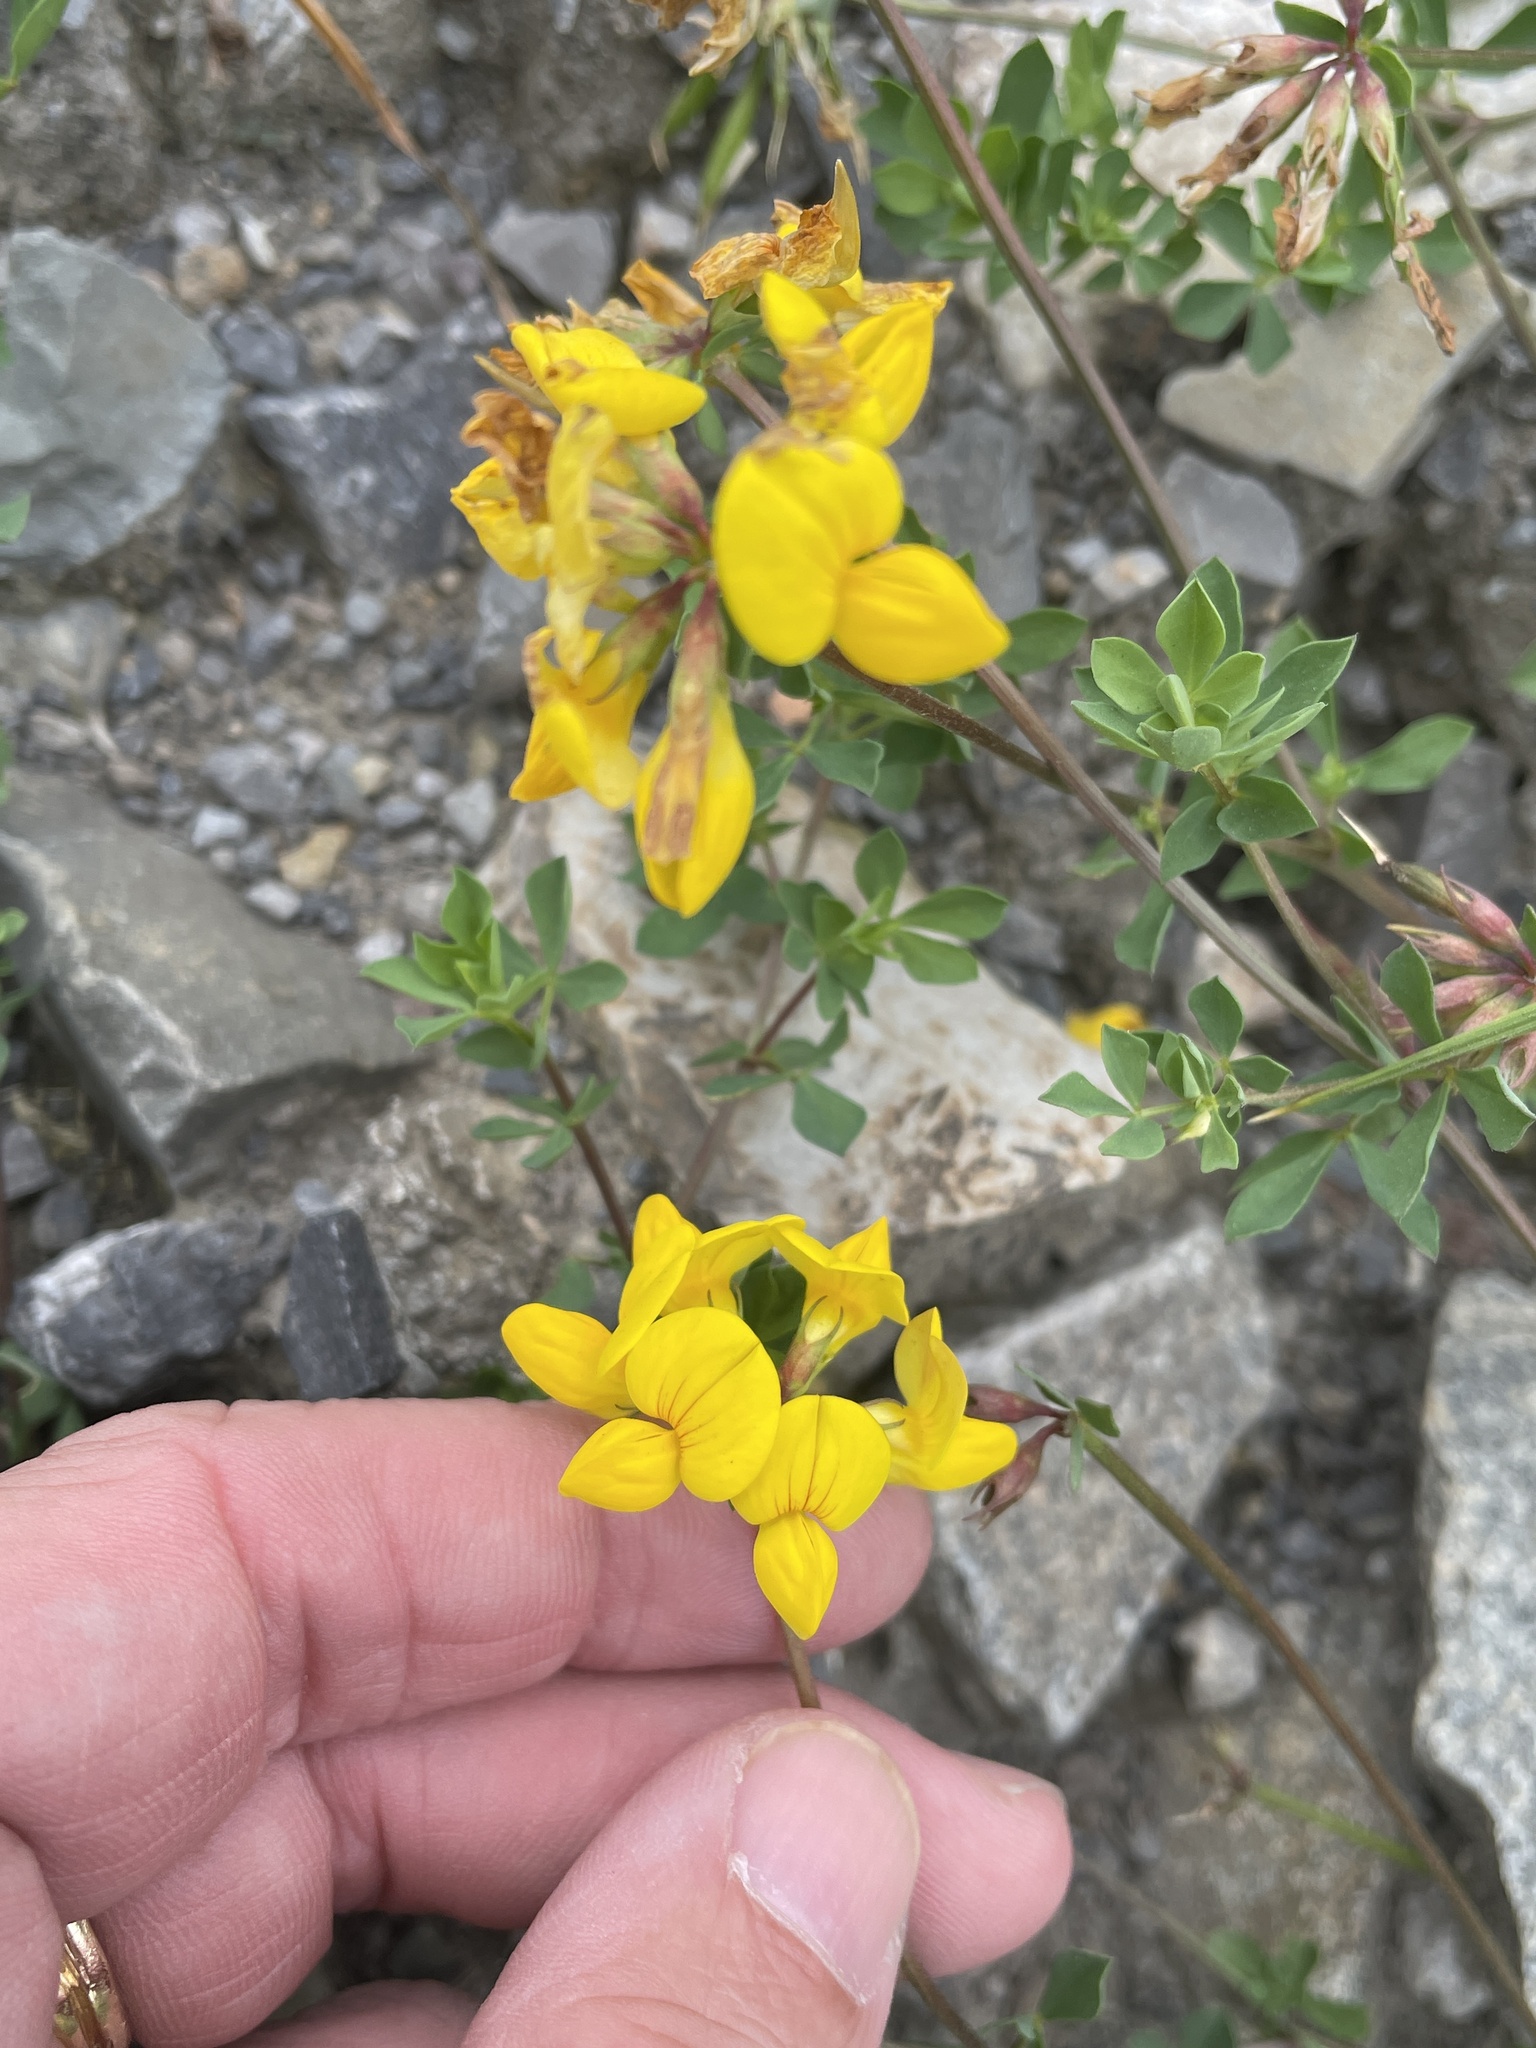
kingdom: Plantae
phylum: Tracheophyta
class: Magnoliopsida
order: Fabales
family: Fabaceae
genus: Lotus
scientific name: Lotus corniculatus
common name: Common bird's-foot-trefoil
